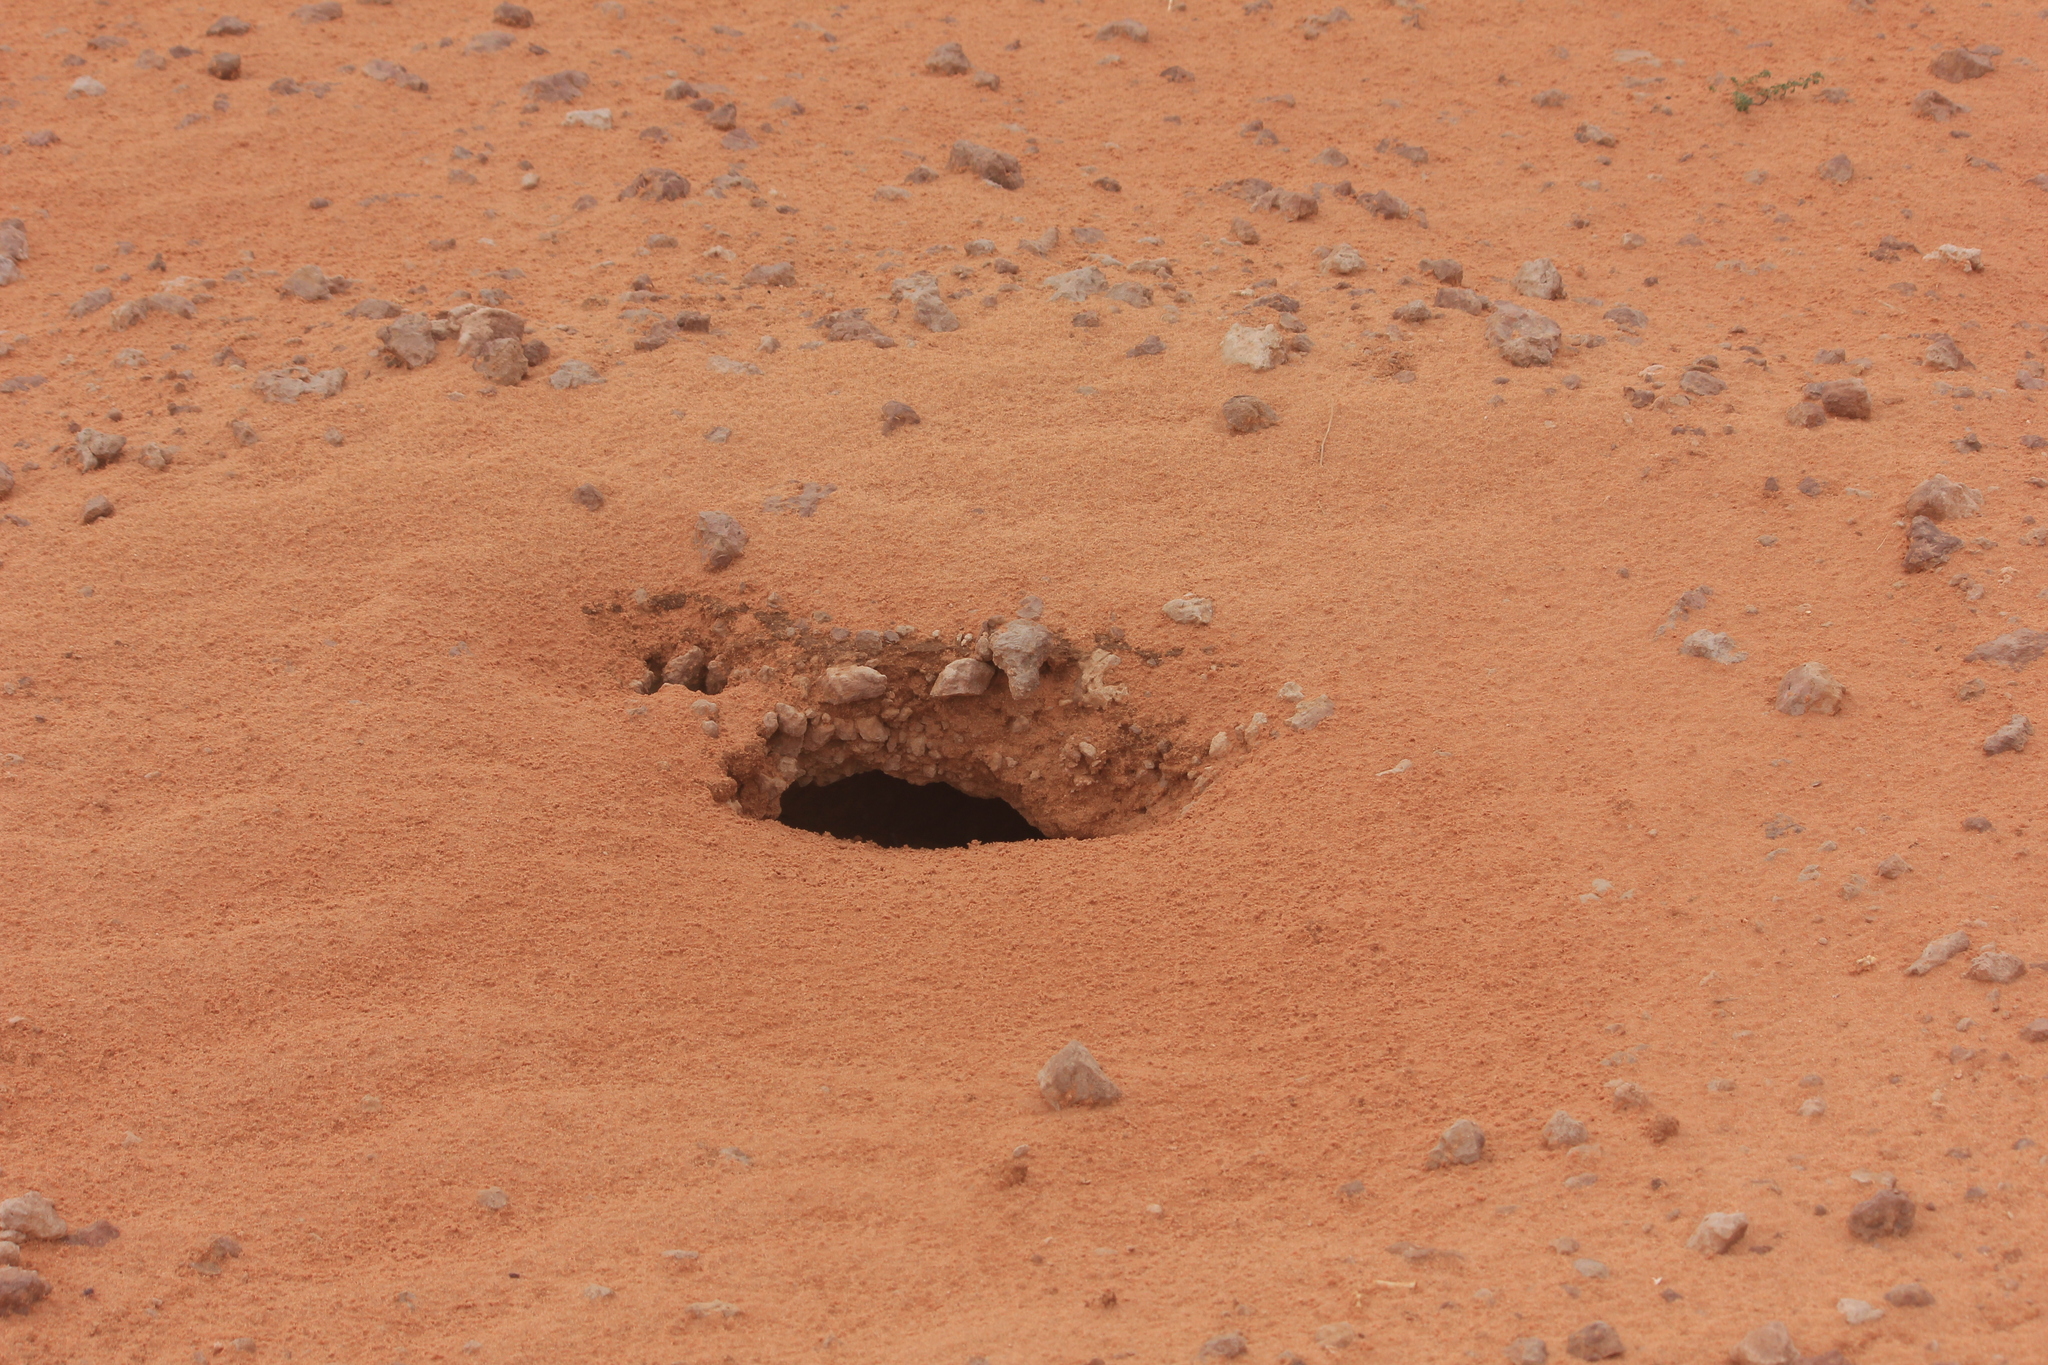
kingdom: Animalia
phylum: Chordata
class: Squamata
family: Agamidae
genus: Uromastyx
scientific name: Uromastyx aegyptia
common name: Egyptian mastigure
